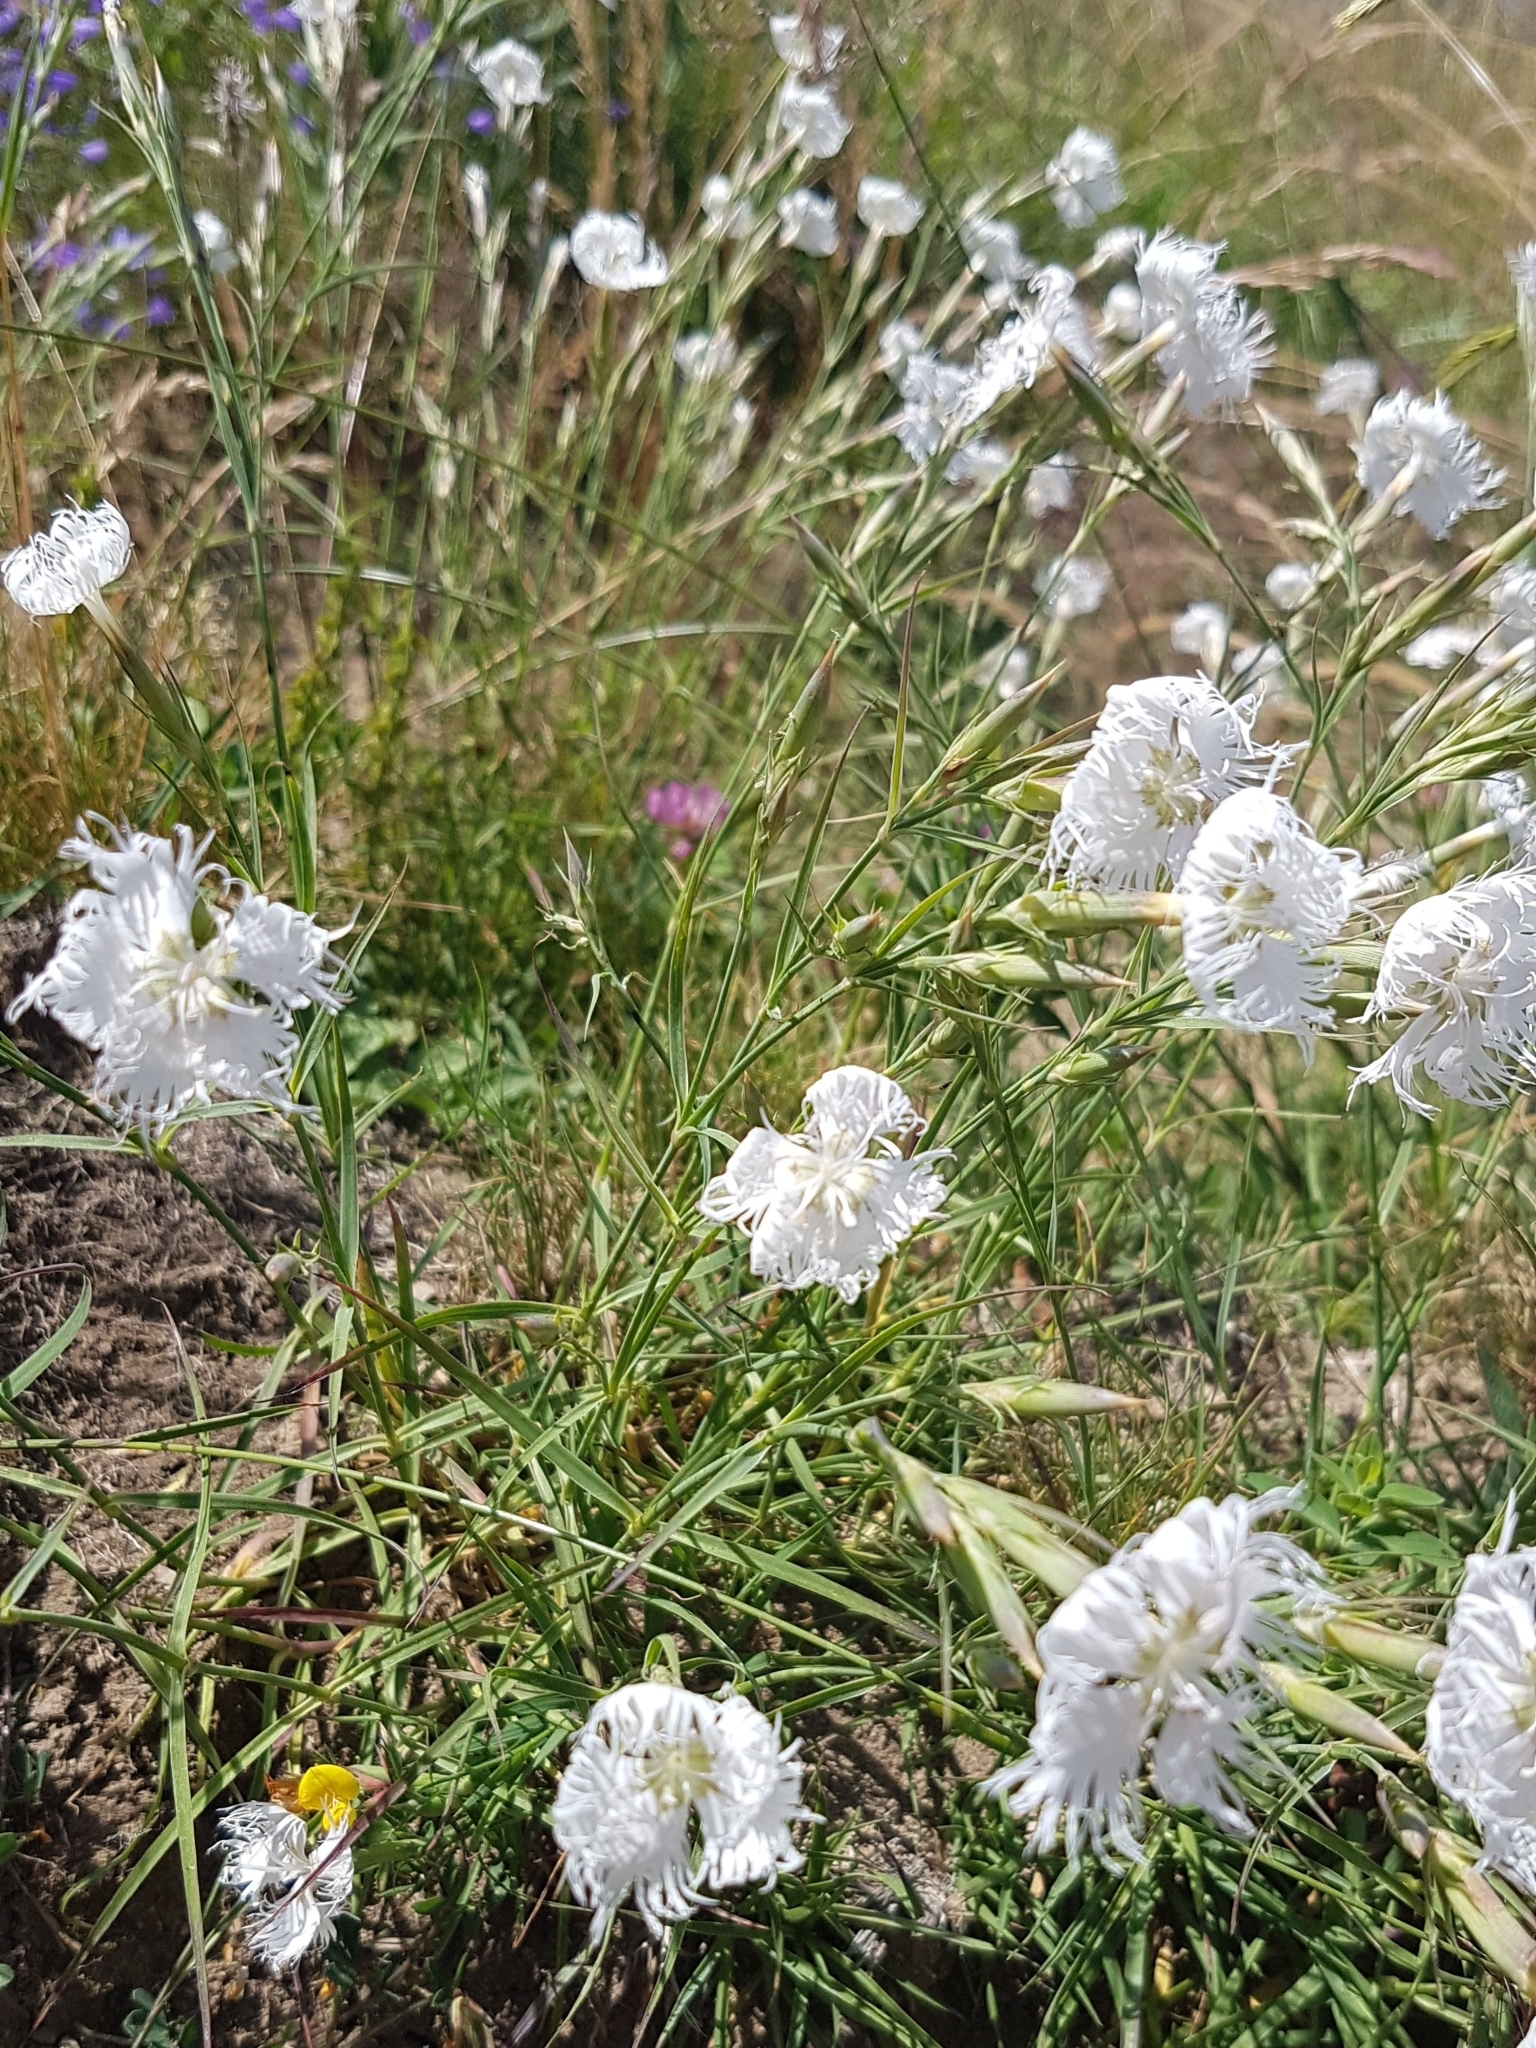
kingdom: Plantae
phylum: Tracheophyta
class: Magnoliopsida
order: Caryophyllales
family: Caryophyllaceae
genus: Dianthus
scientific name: Dianthus hyssopifolius
